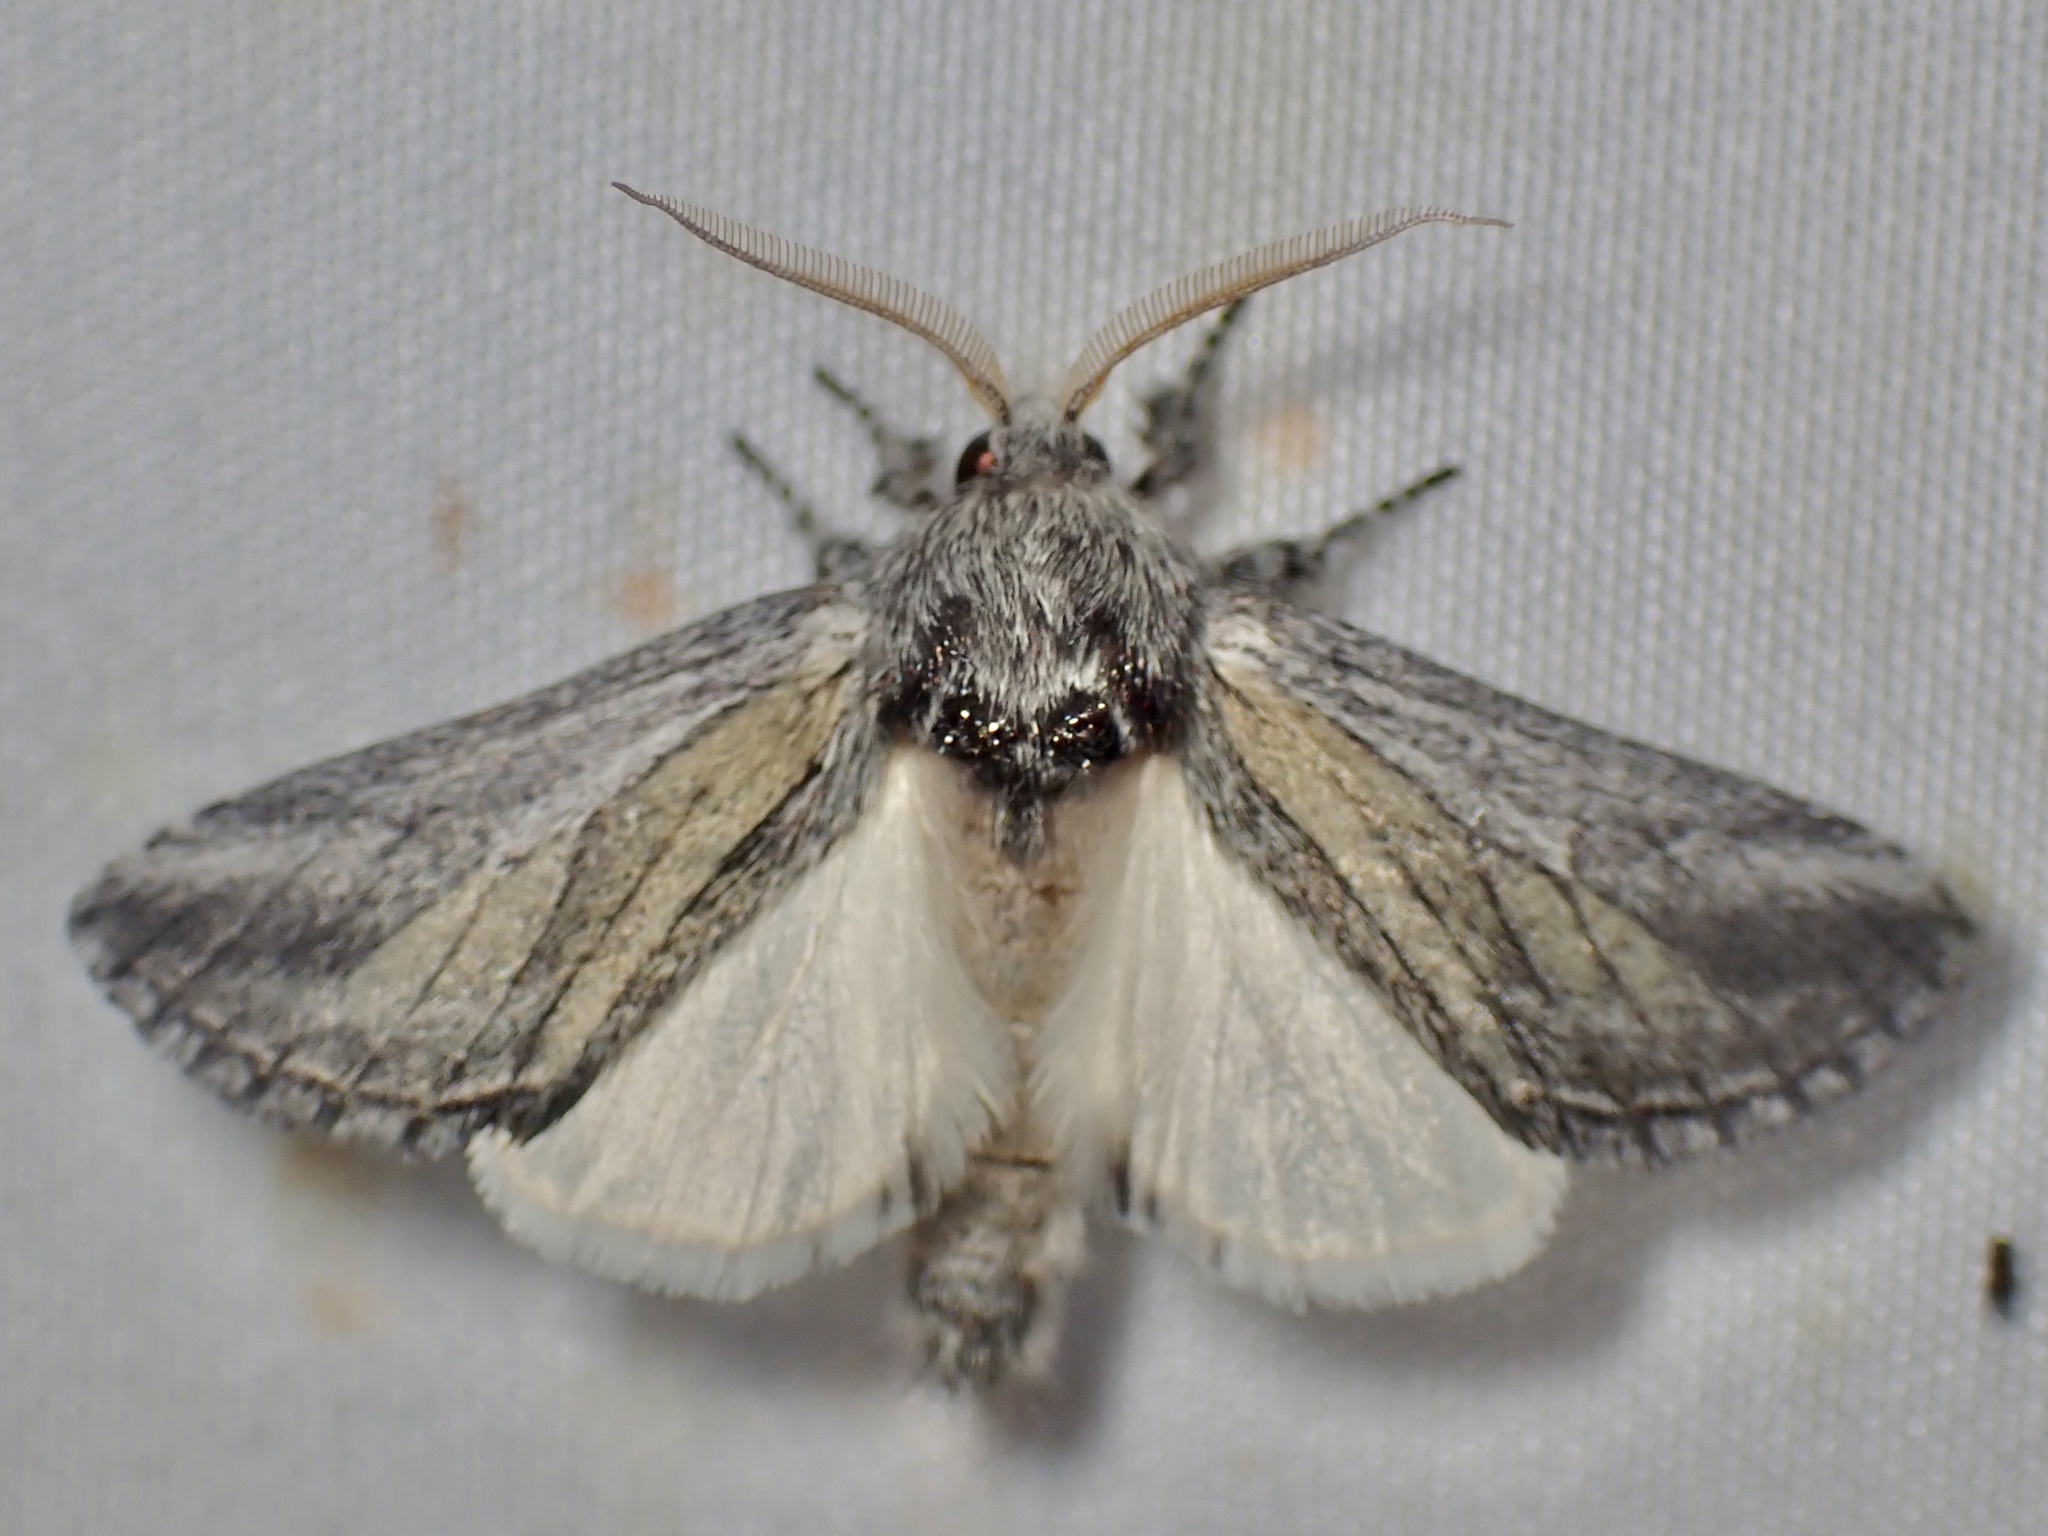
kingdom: Animalia
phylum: Arthropoda
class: Insecta
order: Lepidoptera
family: Notodontidae
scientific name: Notodontidae
